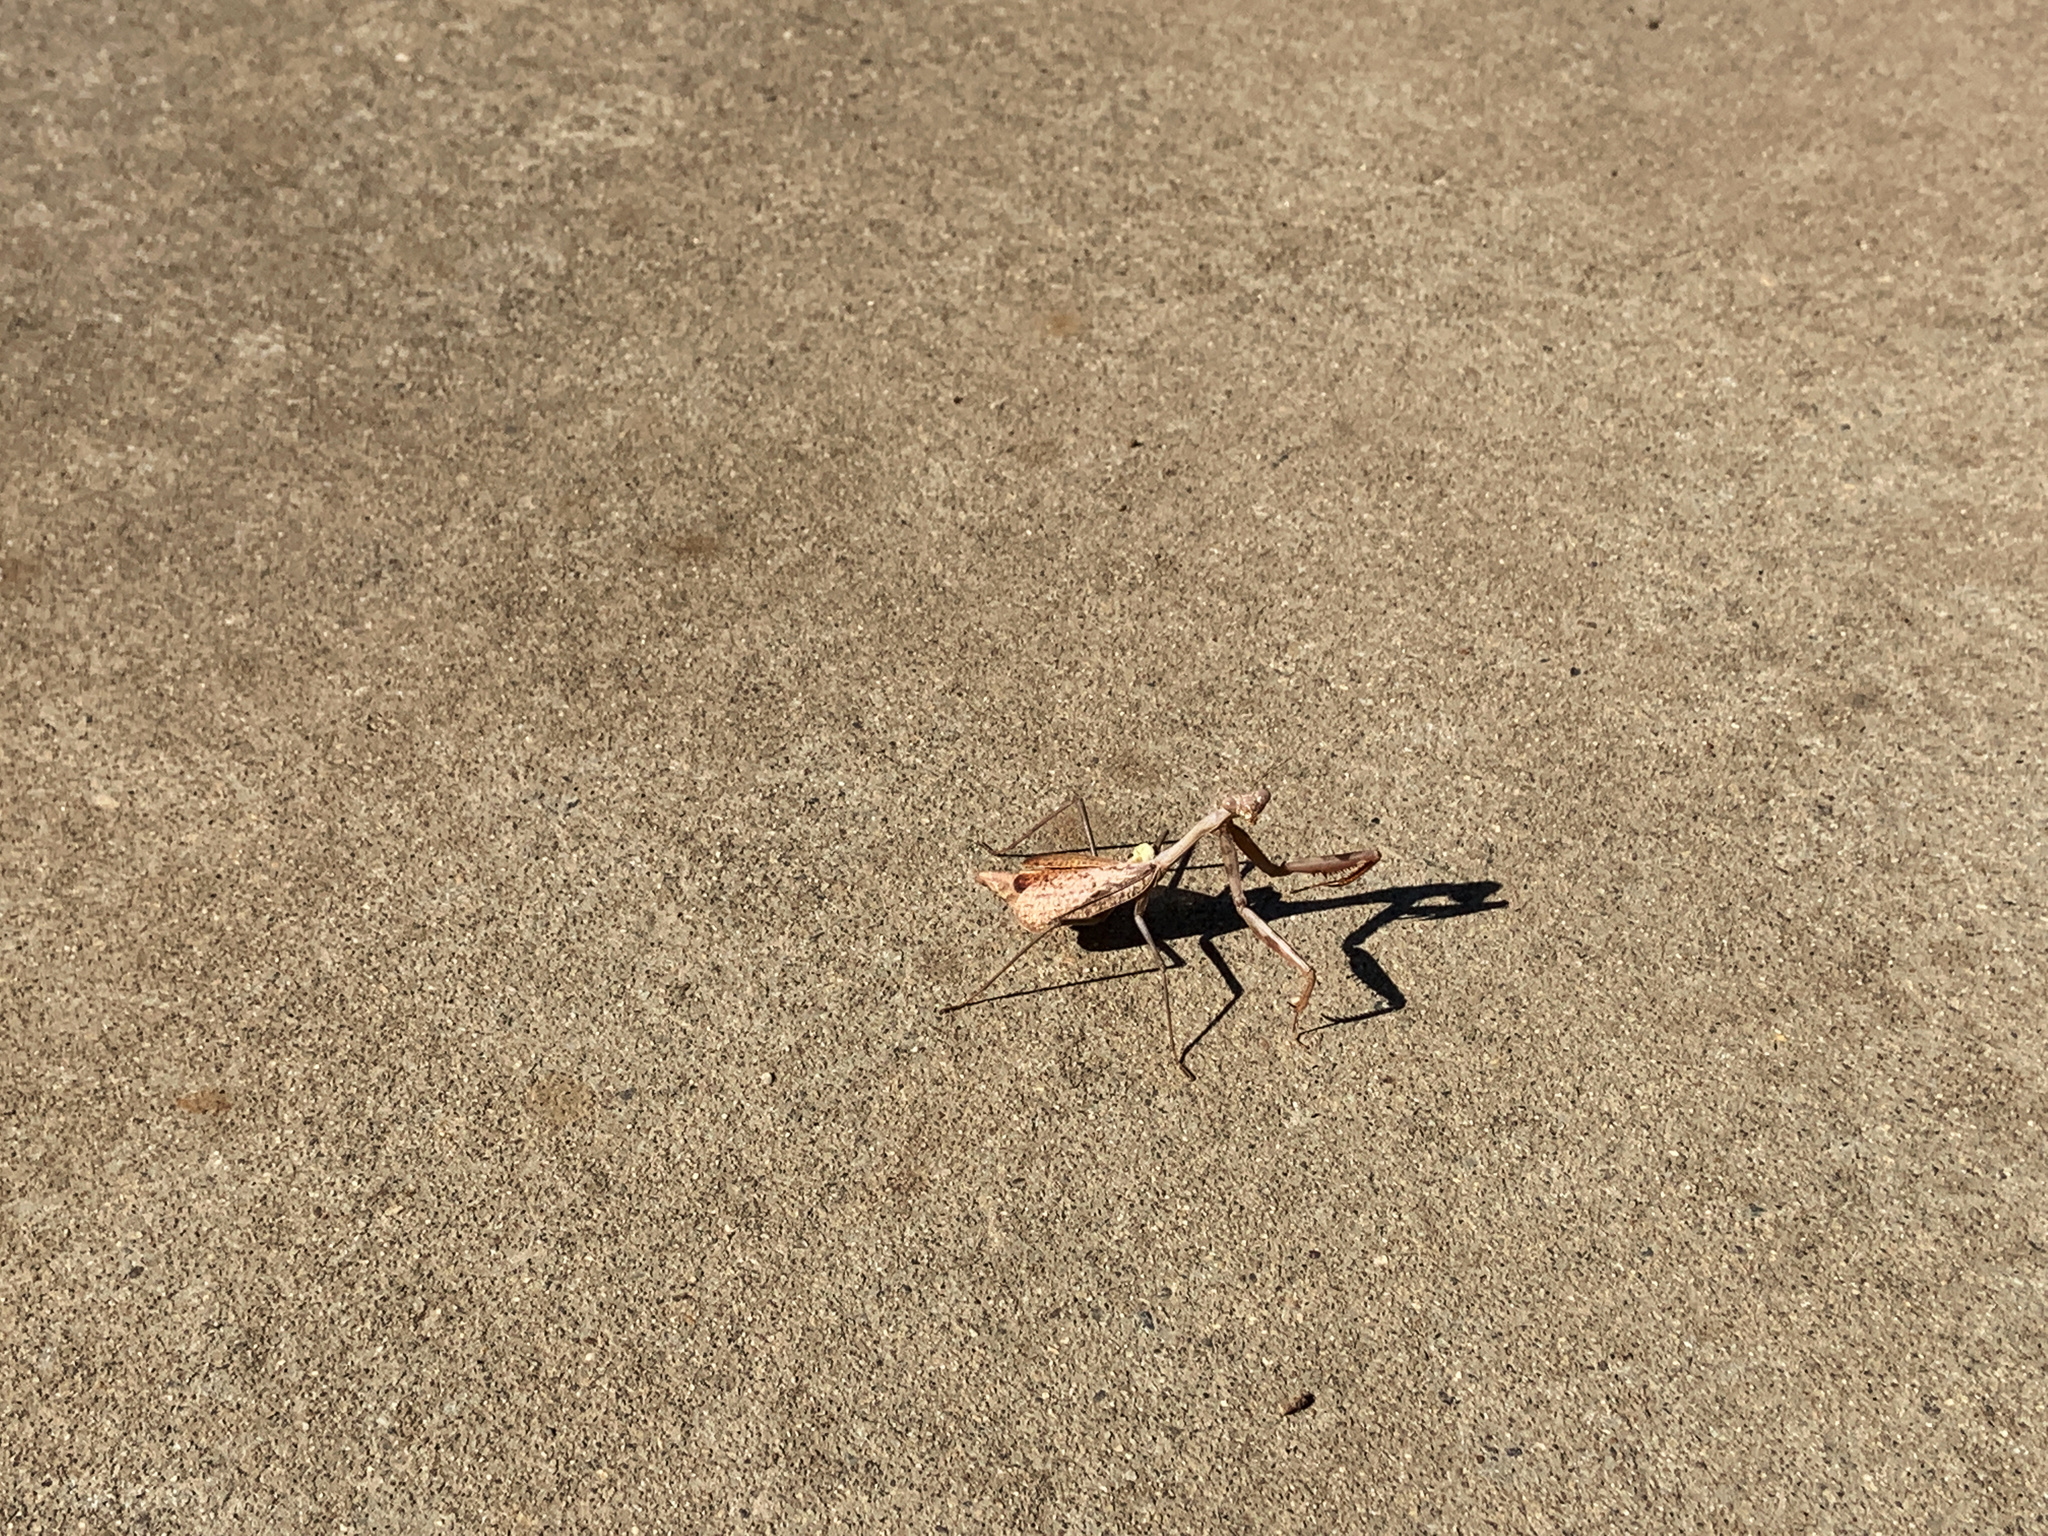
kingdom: Animalia
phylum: Arthropoda
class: Insecta
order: Mantodea
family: Mantidae
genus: Stagmomantis
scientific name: Stagmomantis limbata
